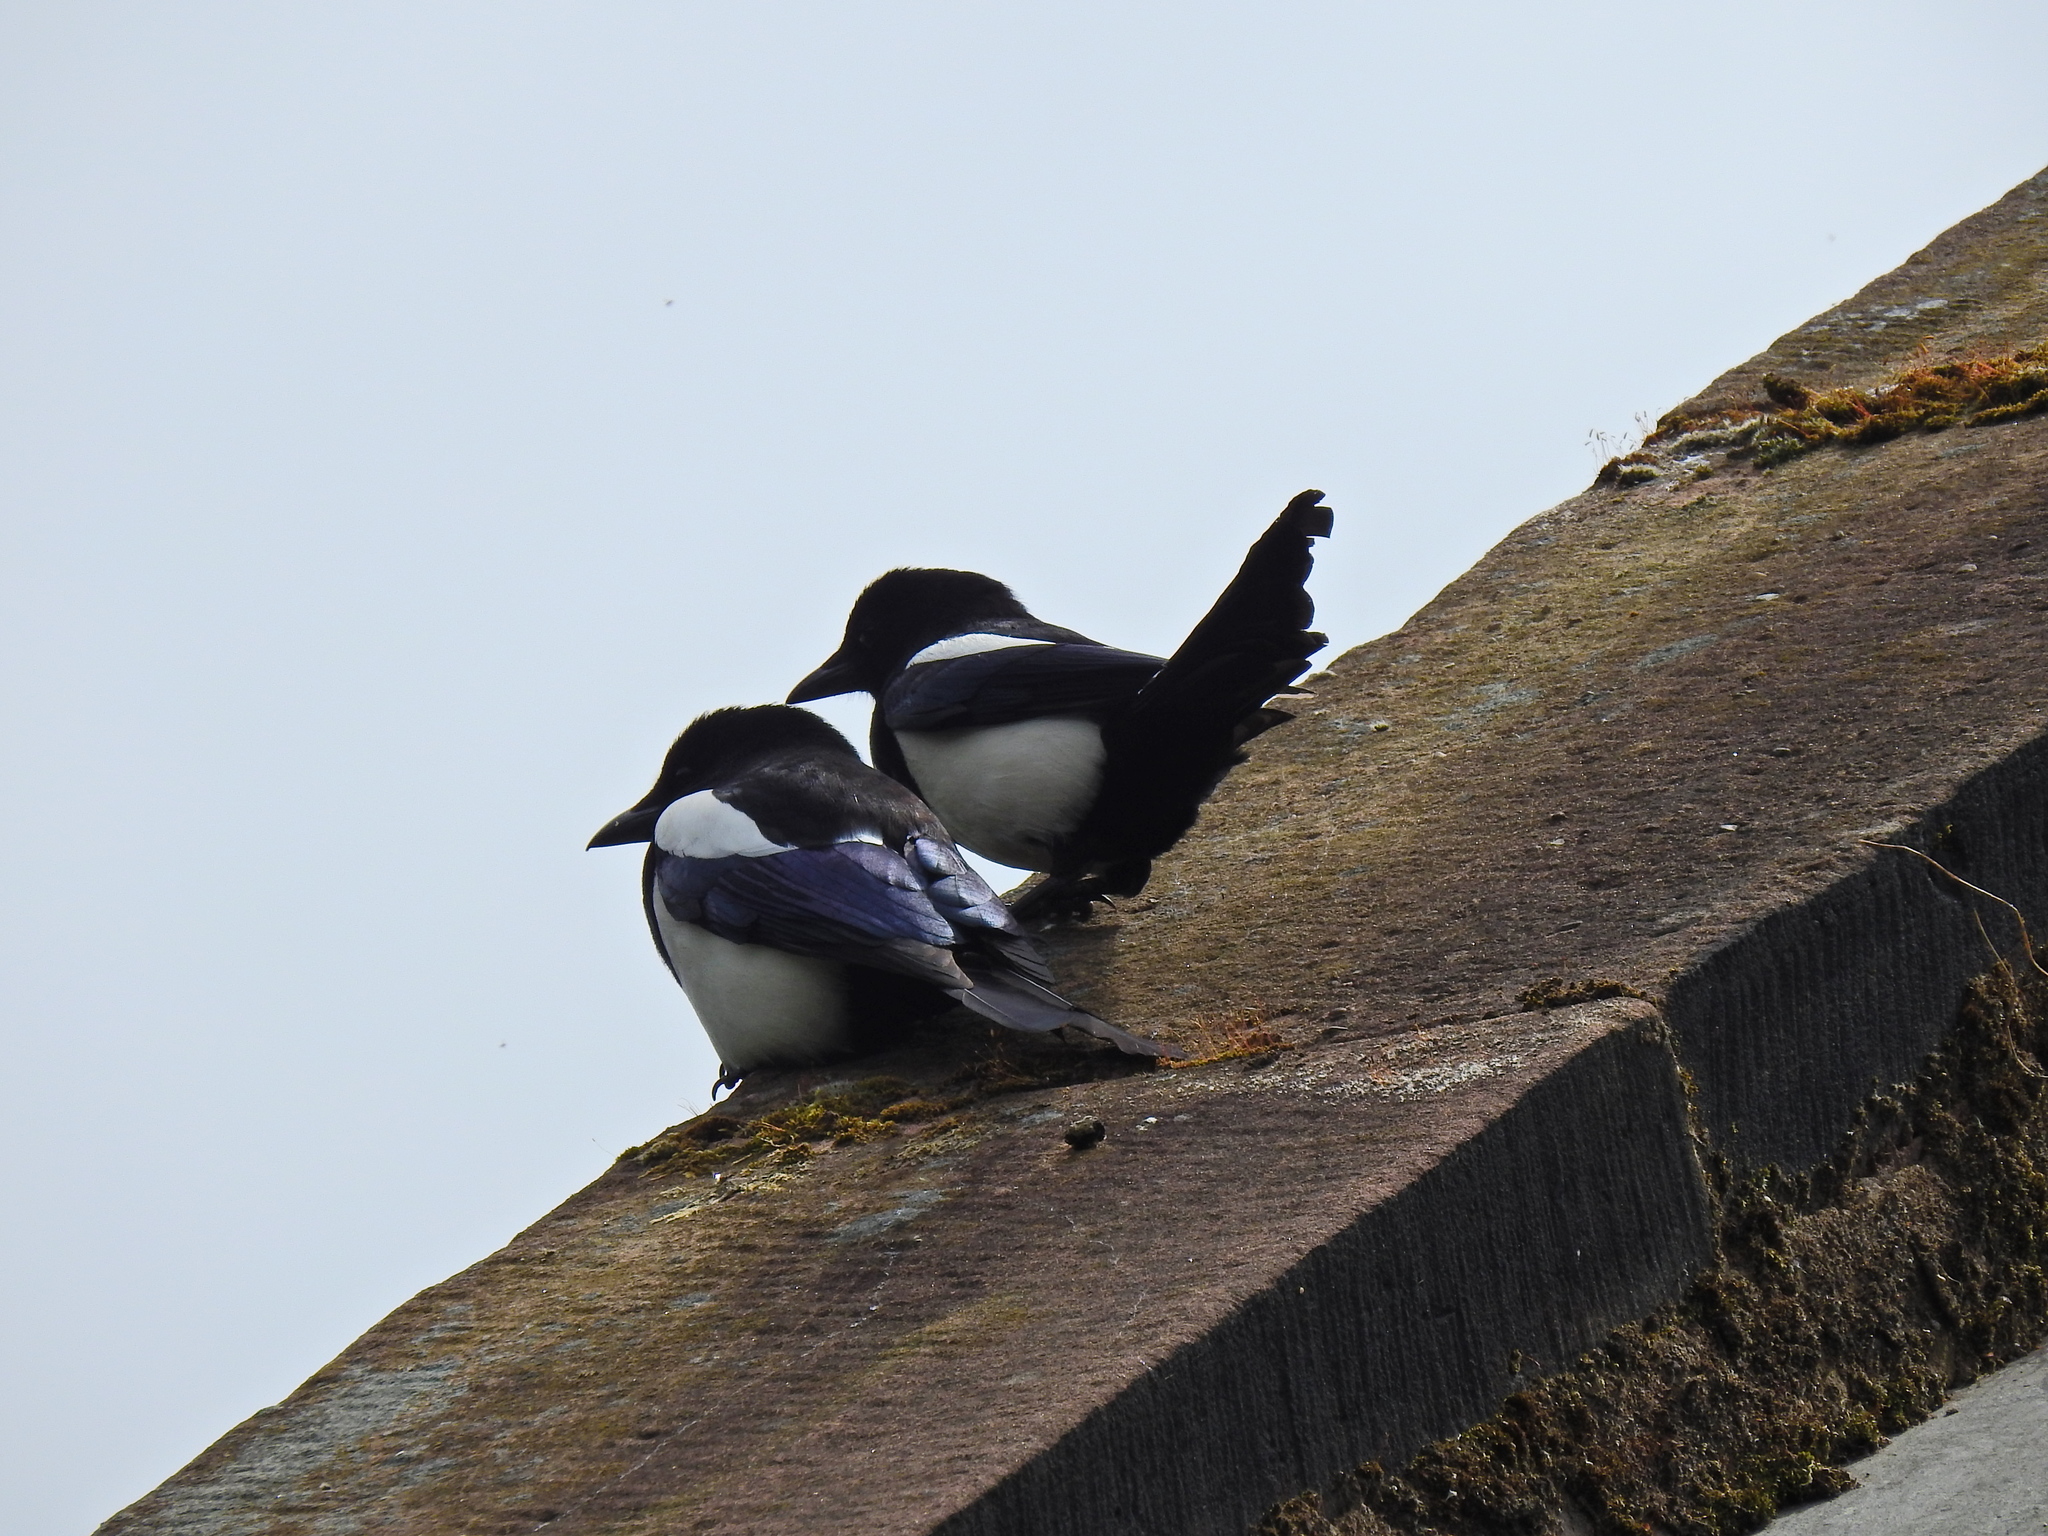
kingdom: Animalia
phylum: Chordata
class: Aves
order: Passeriformes
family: Corvidae
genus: Pica
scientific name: Pica pica
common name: Eurasian magpie
